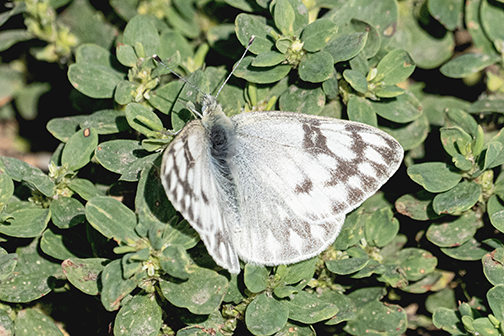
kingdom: Animalia
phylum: Arthropoda
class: Insecta
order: Lepidoptera
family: Pieridae
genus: Pontia
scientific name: Pontia occidentalis
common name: Western white
